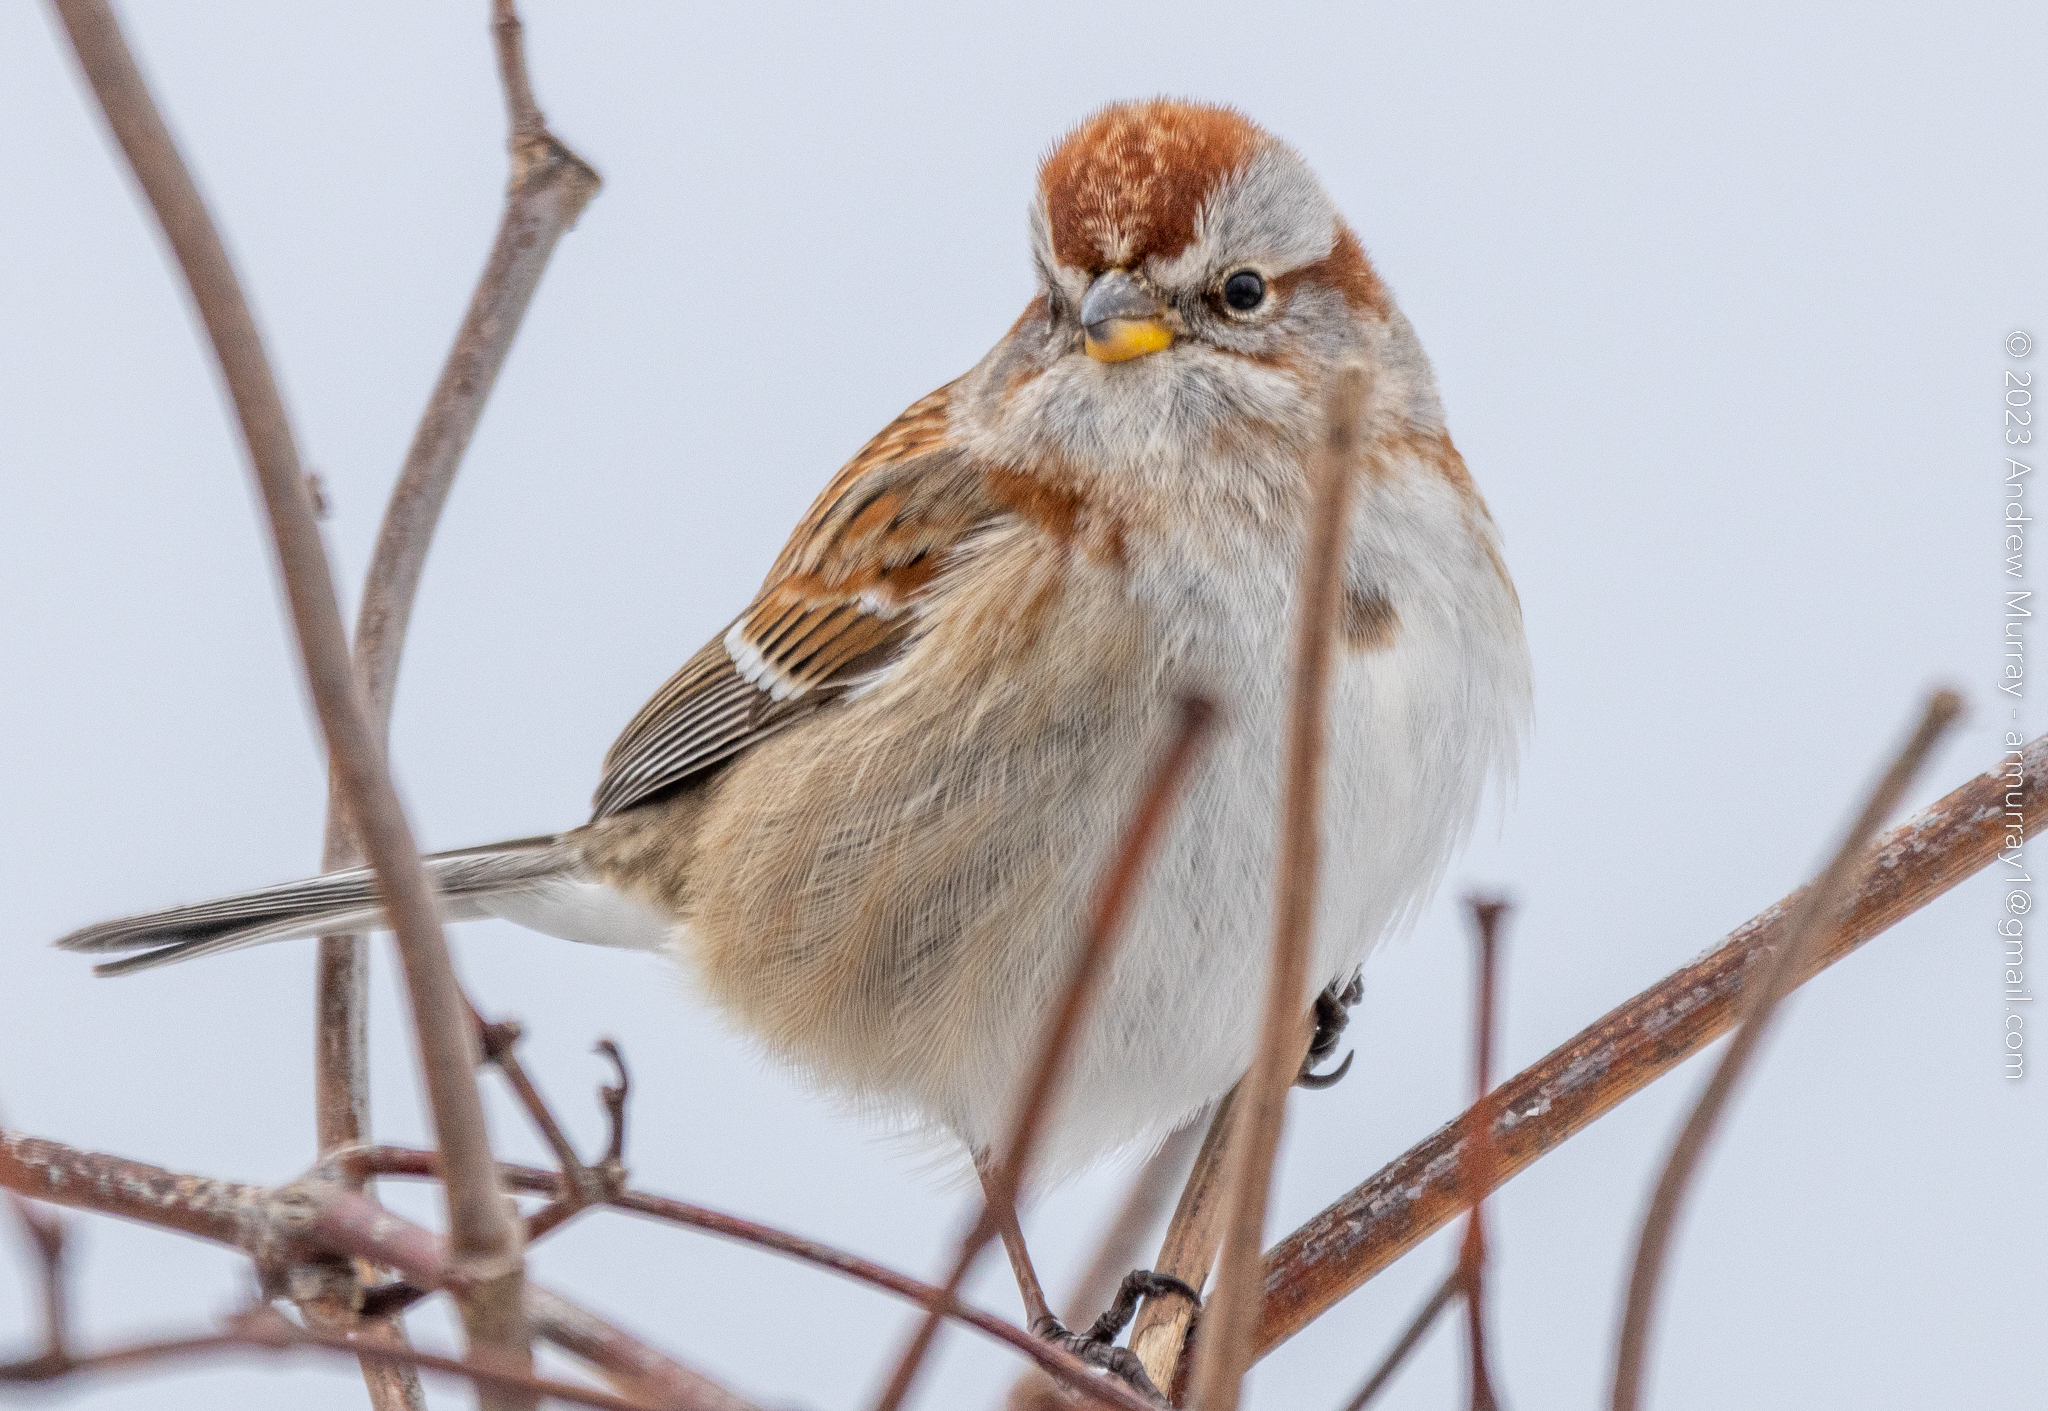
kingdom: Animalia
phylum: Chordata
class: Aves
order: Passeriformes
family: Passerellidae
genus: Spizelloides
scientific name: Spizelloides arborea
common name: American tree sparrow
